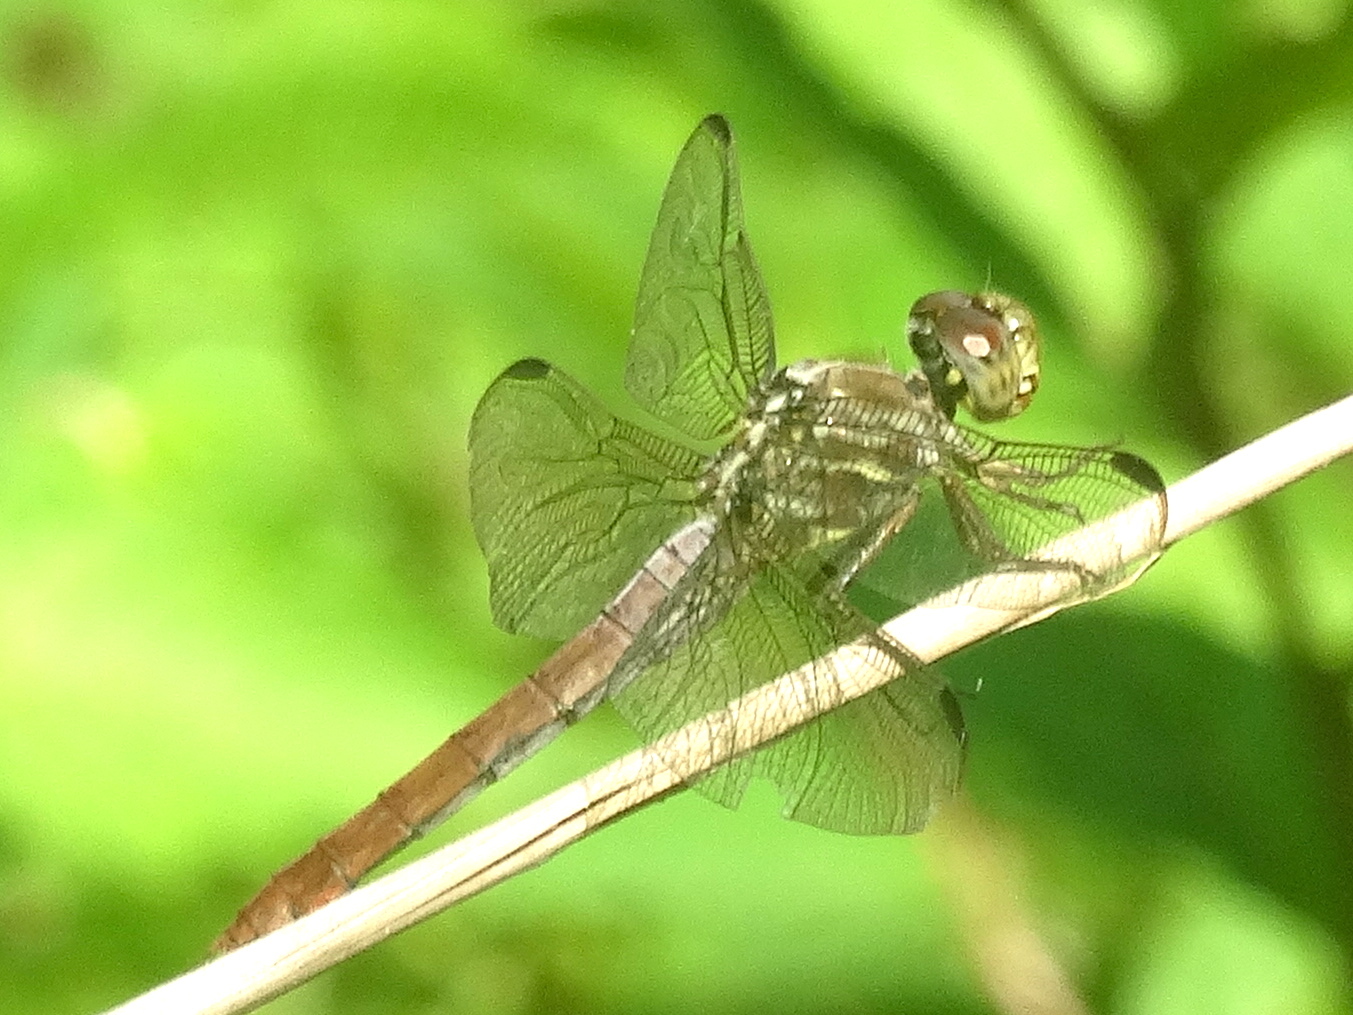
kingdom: Animalia
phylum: Arthropoda
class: Insecta
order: Odonata
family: Libellulidae
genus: Orthemis
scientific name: Orthemis
